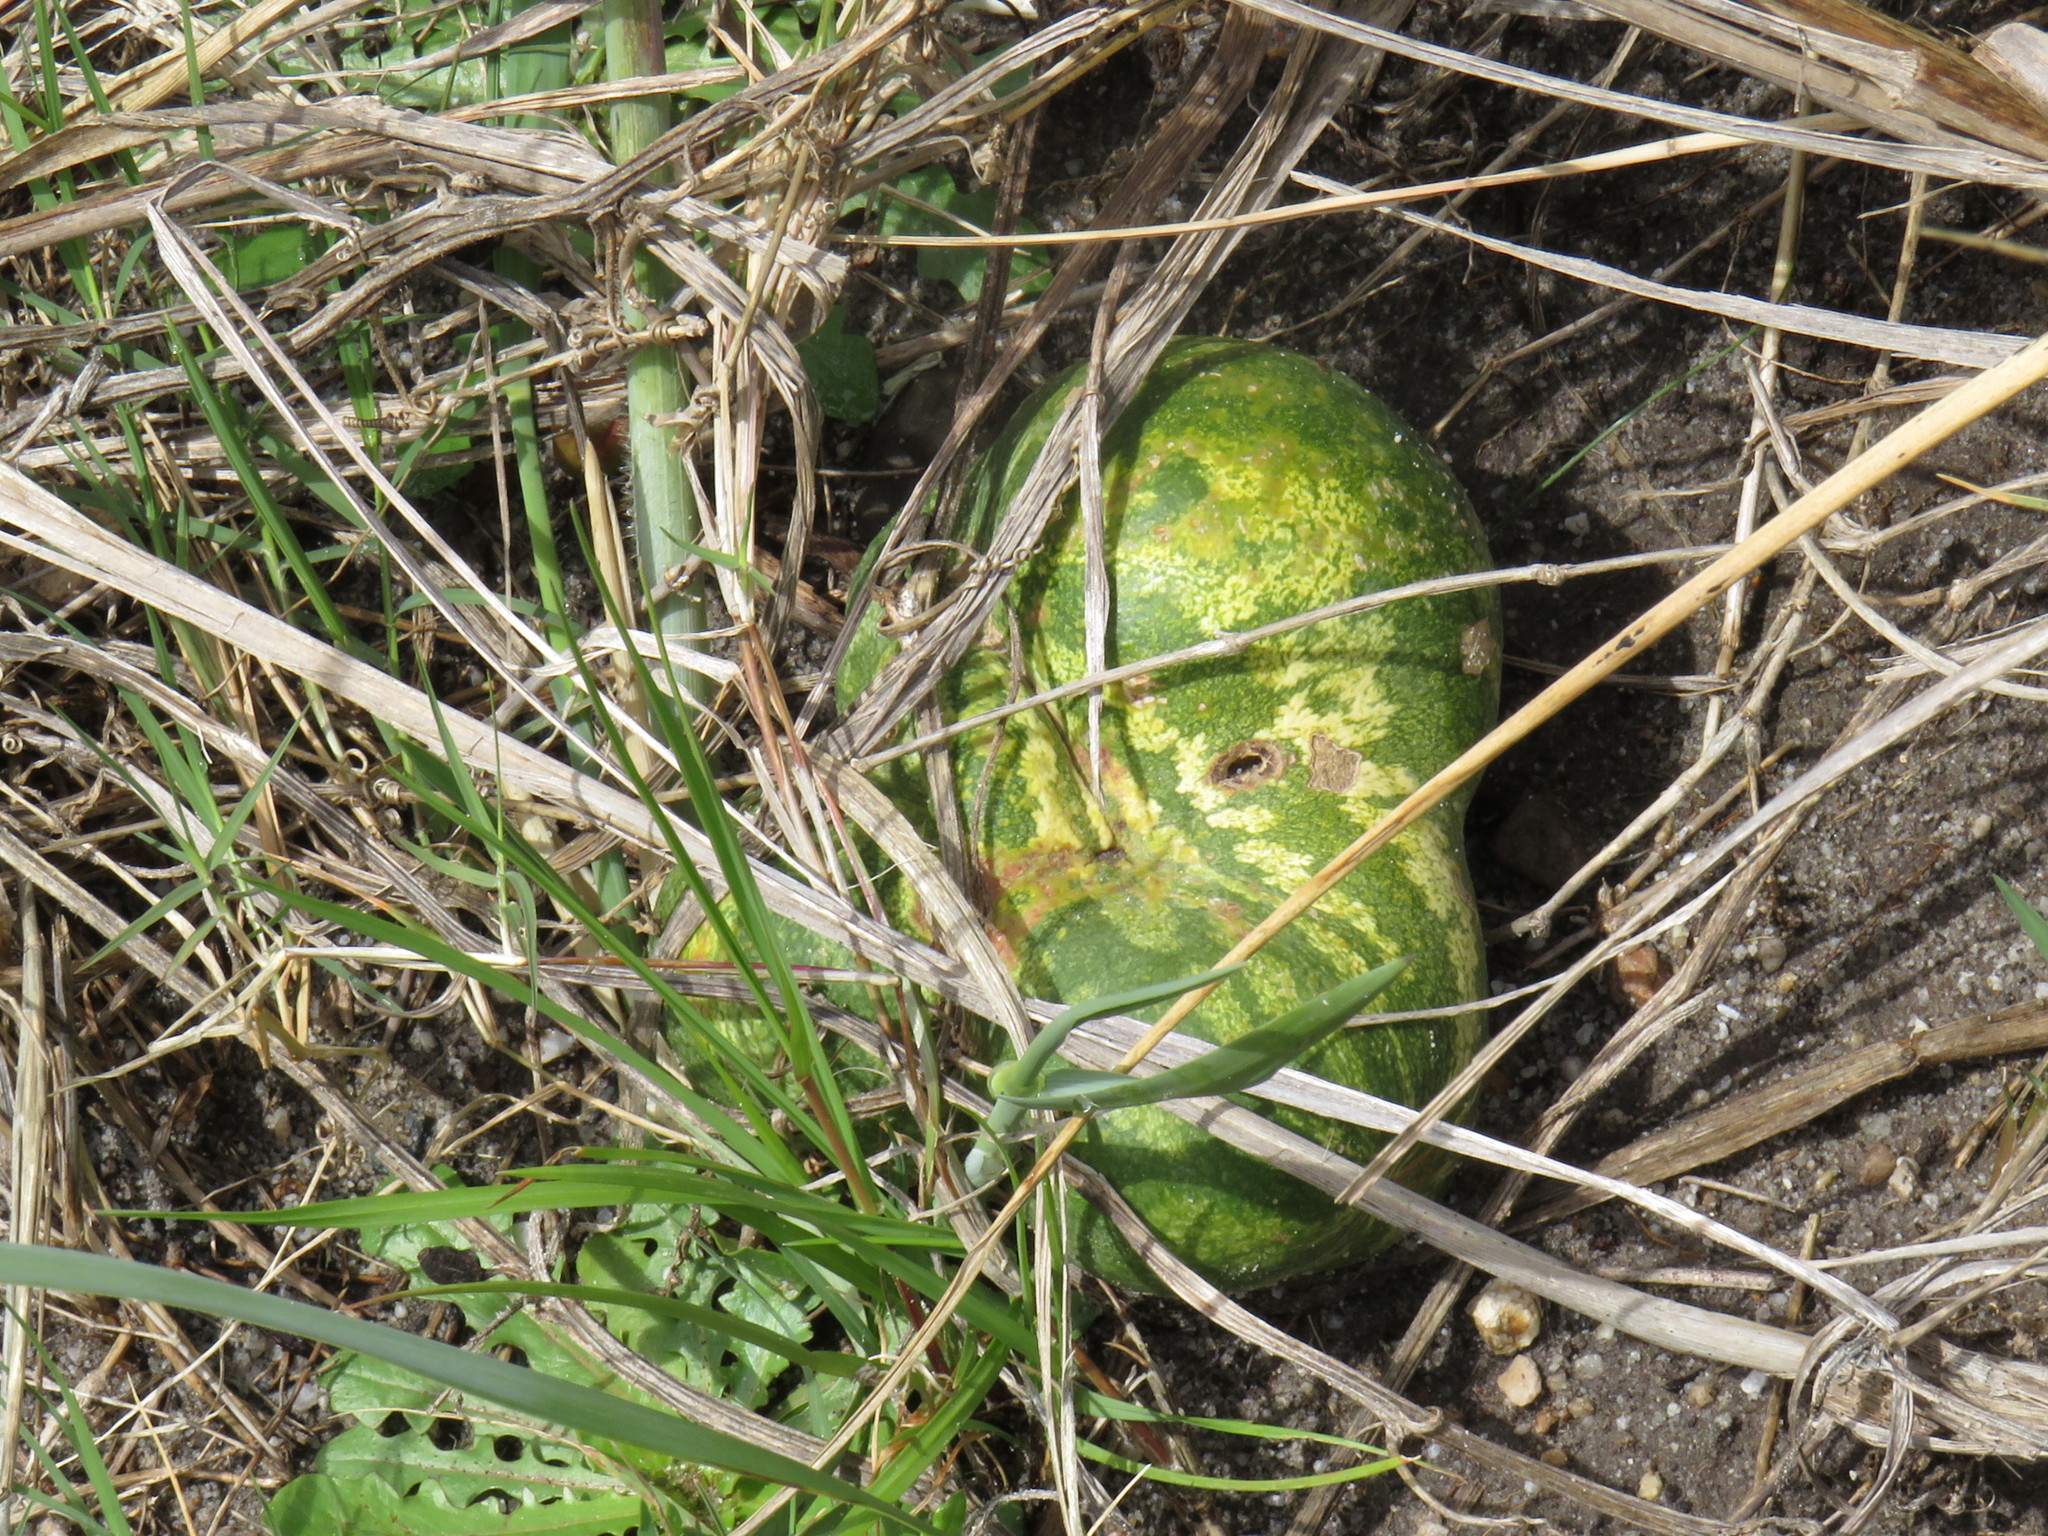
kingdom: Plantae
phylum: Tracheophyta
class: Magnoliopsida
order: Cucurbitales
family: Cucurbitaceae
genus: Citrullus
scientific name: Citrullus amarus
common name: Fodder-melon
